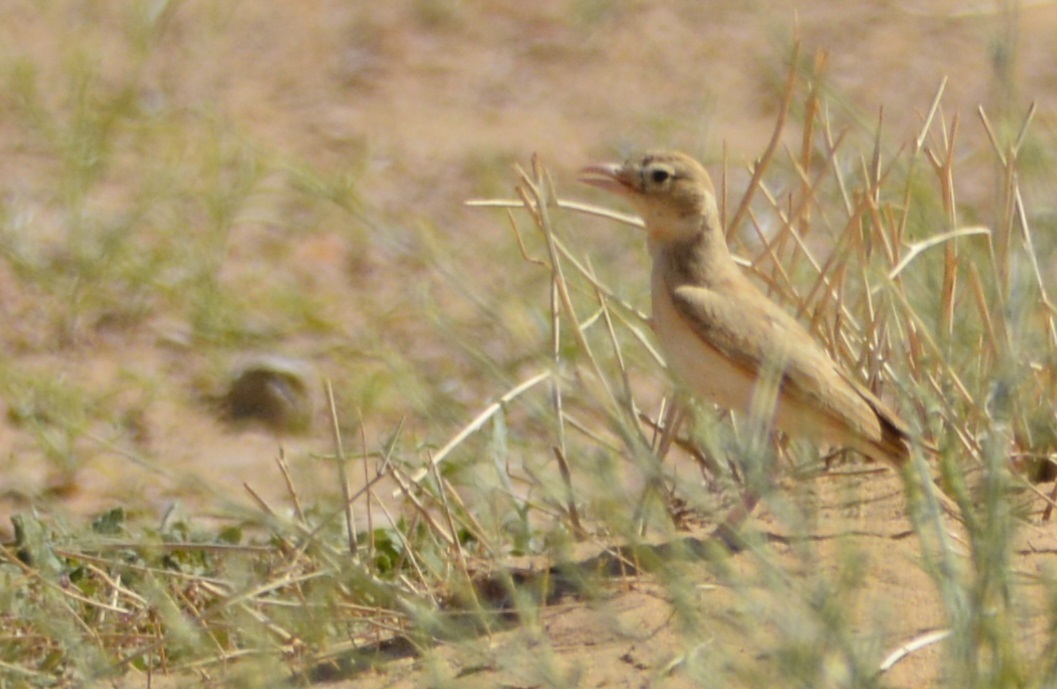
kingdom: Animalia
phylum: Chordata
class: Aves
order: Passeriformes
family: Alaudidae
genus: Eremalauda
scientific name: Eremalauda dunni
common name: Dunn's lark
